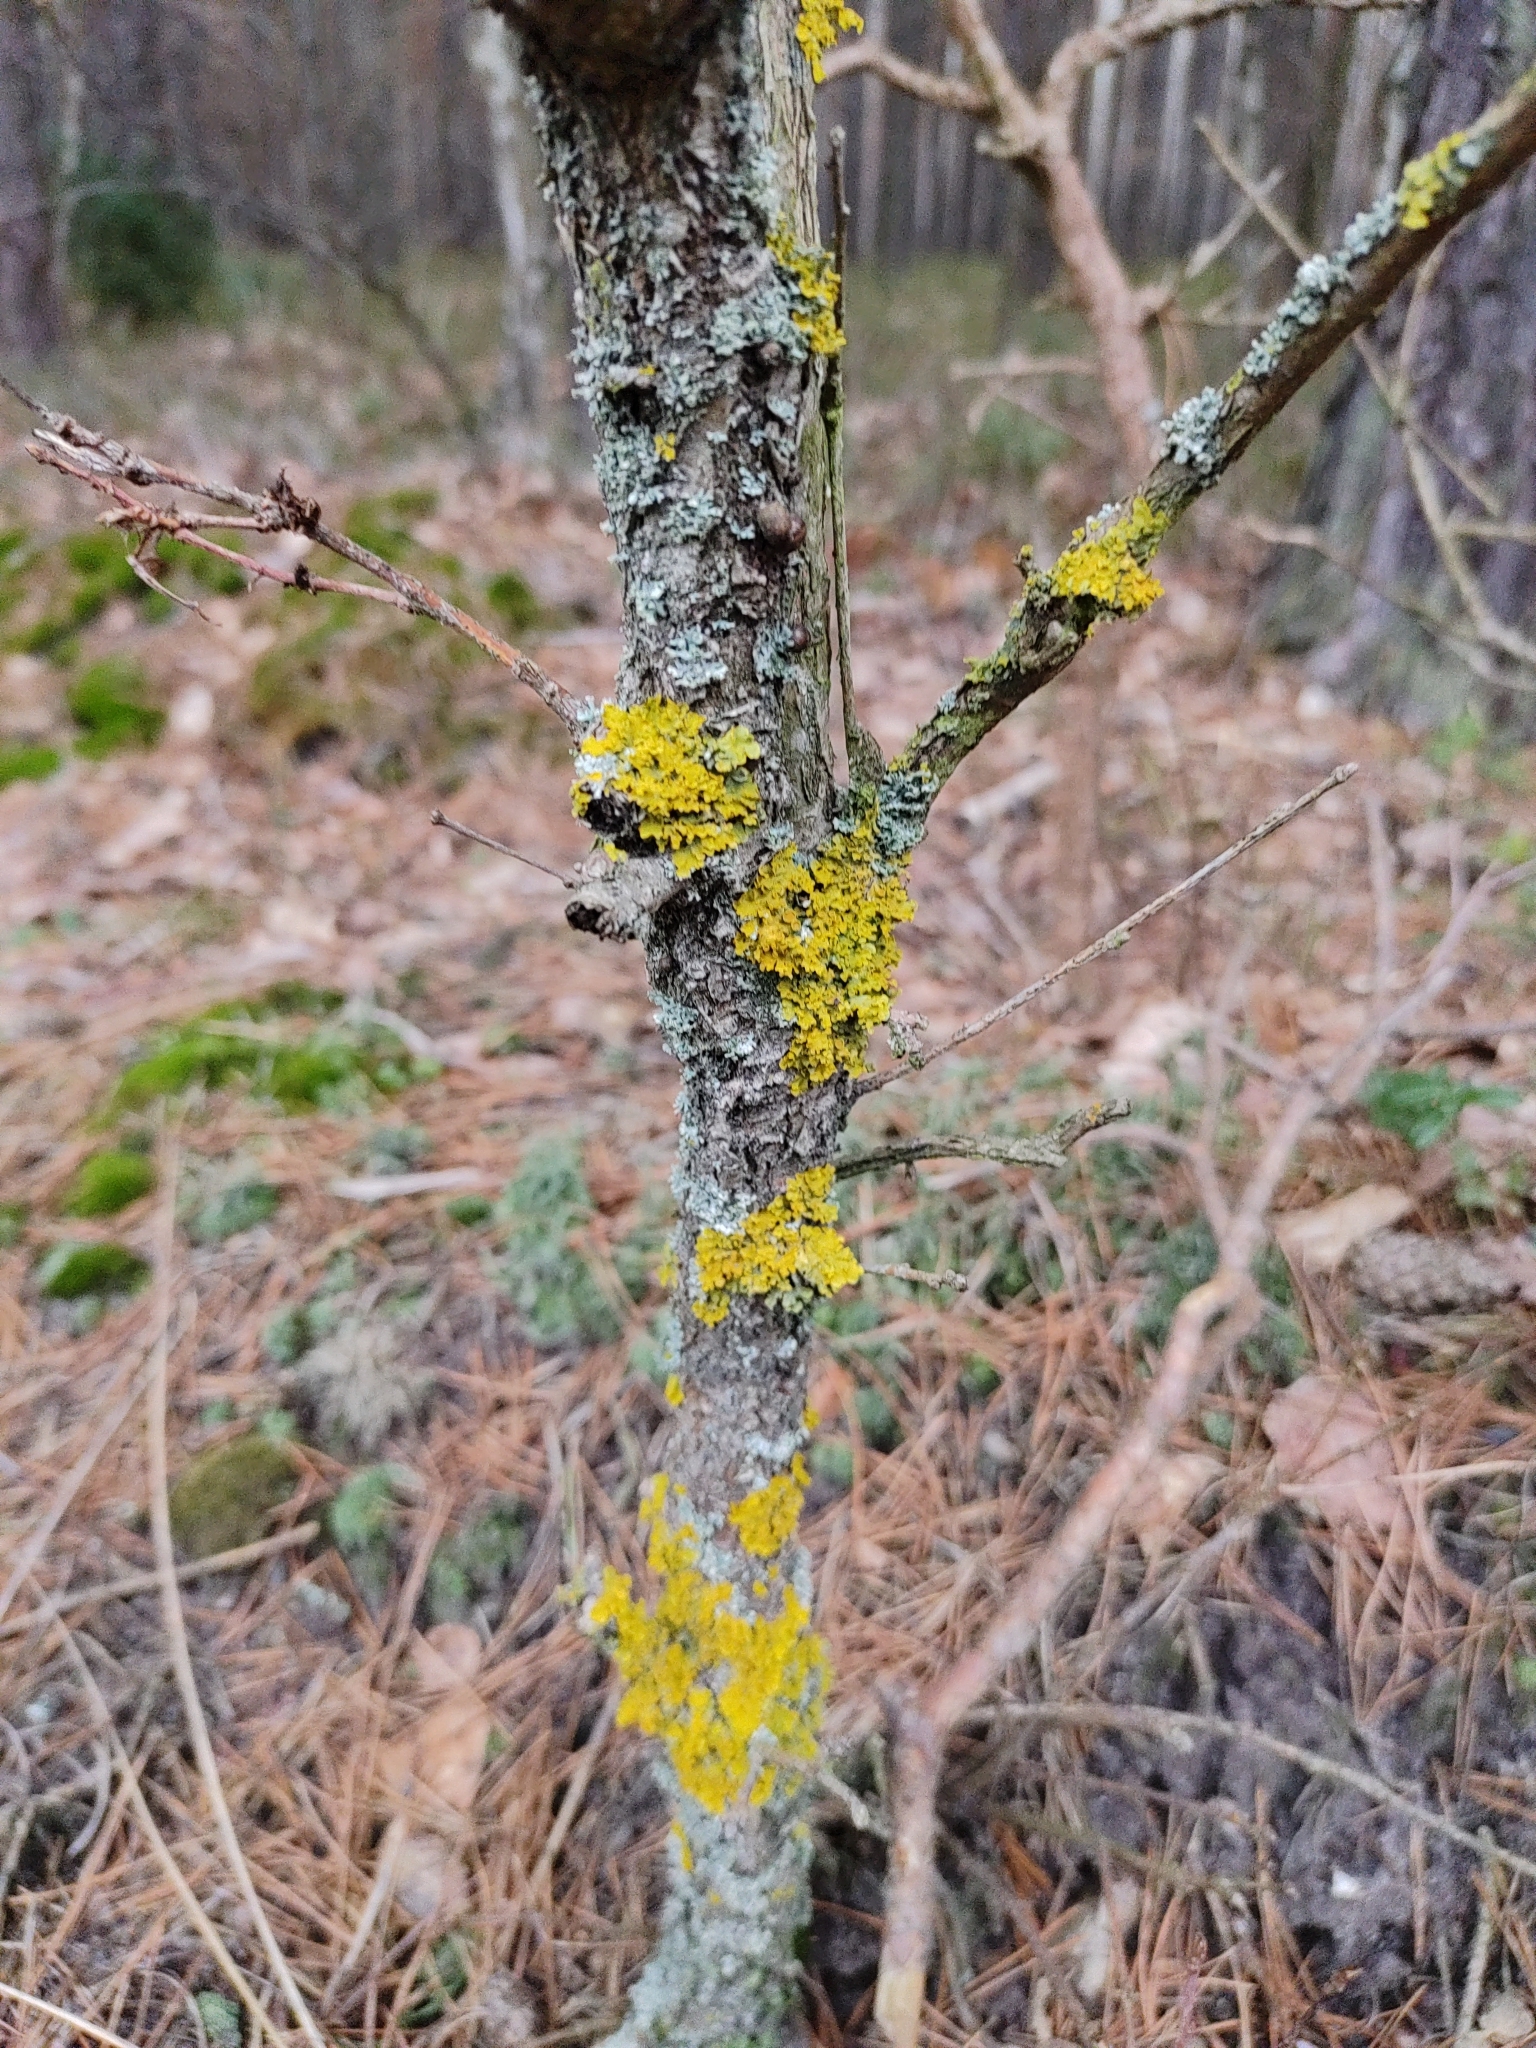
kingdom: Fungi
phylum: Ascomycota
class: Lecanoromycetes
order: Teloschistales
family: Teloschistaceae
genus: Xanthoria
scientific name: Xanthoria parietina
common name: Common orange lichen
